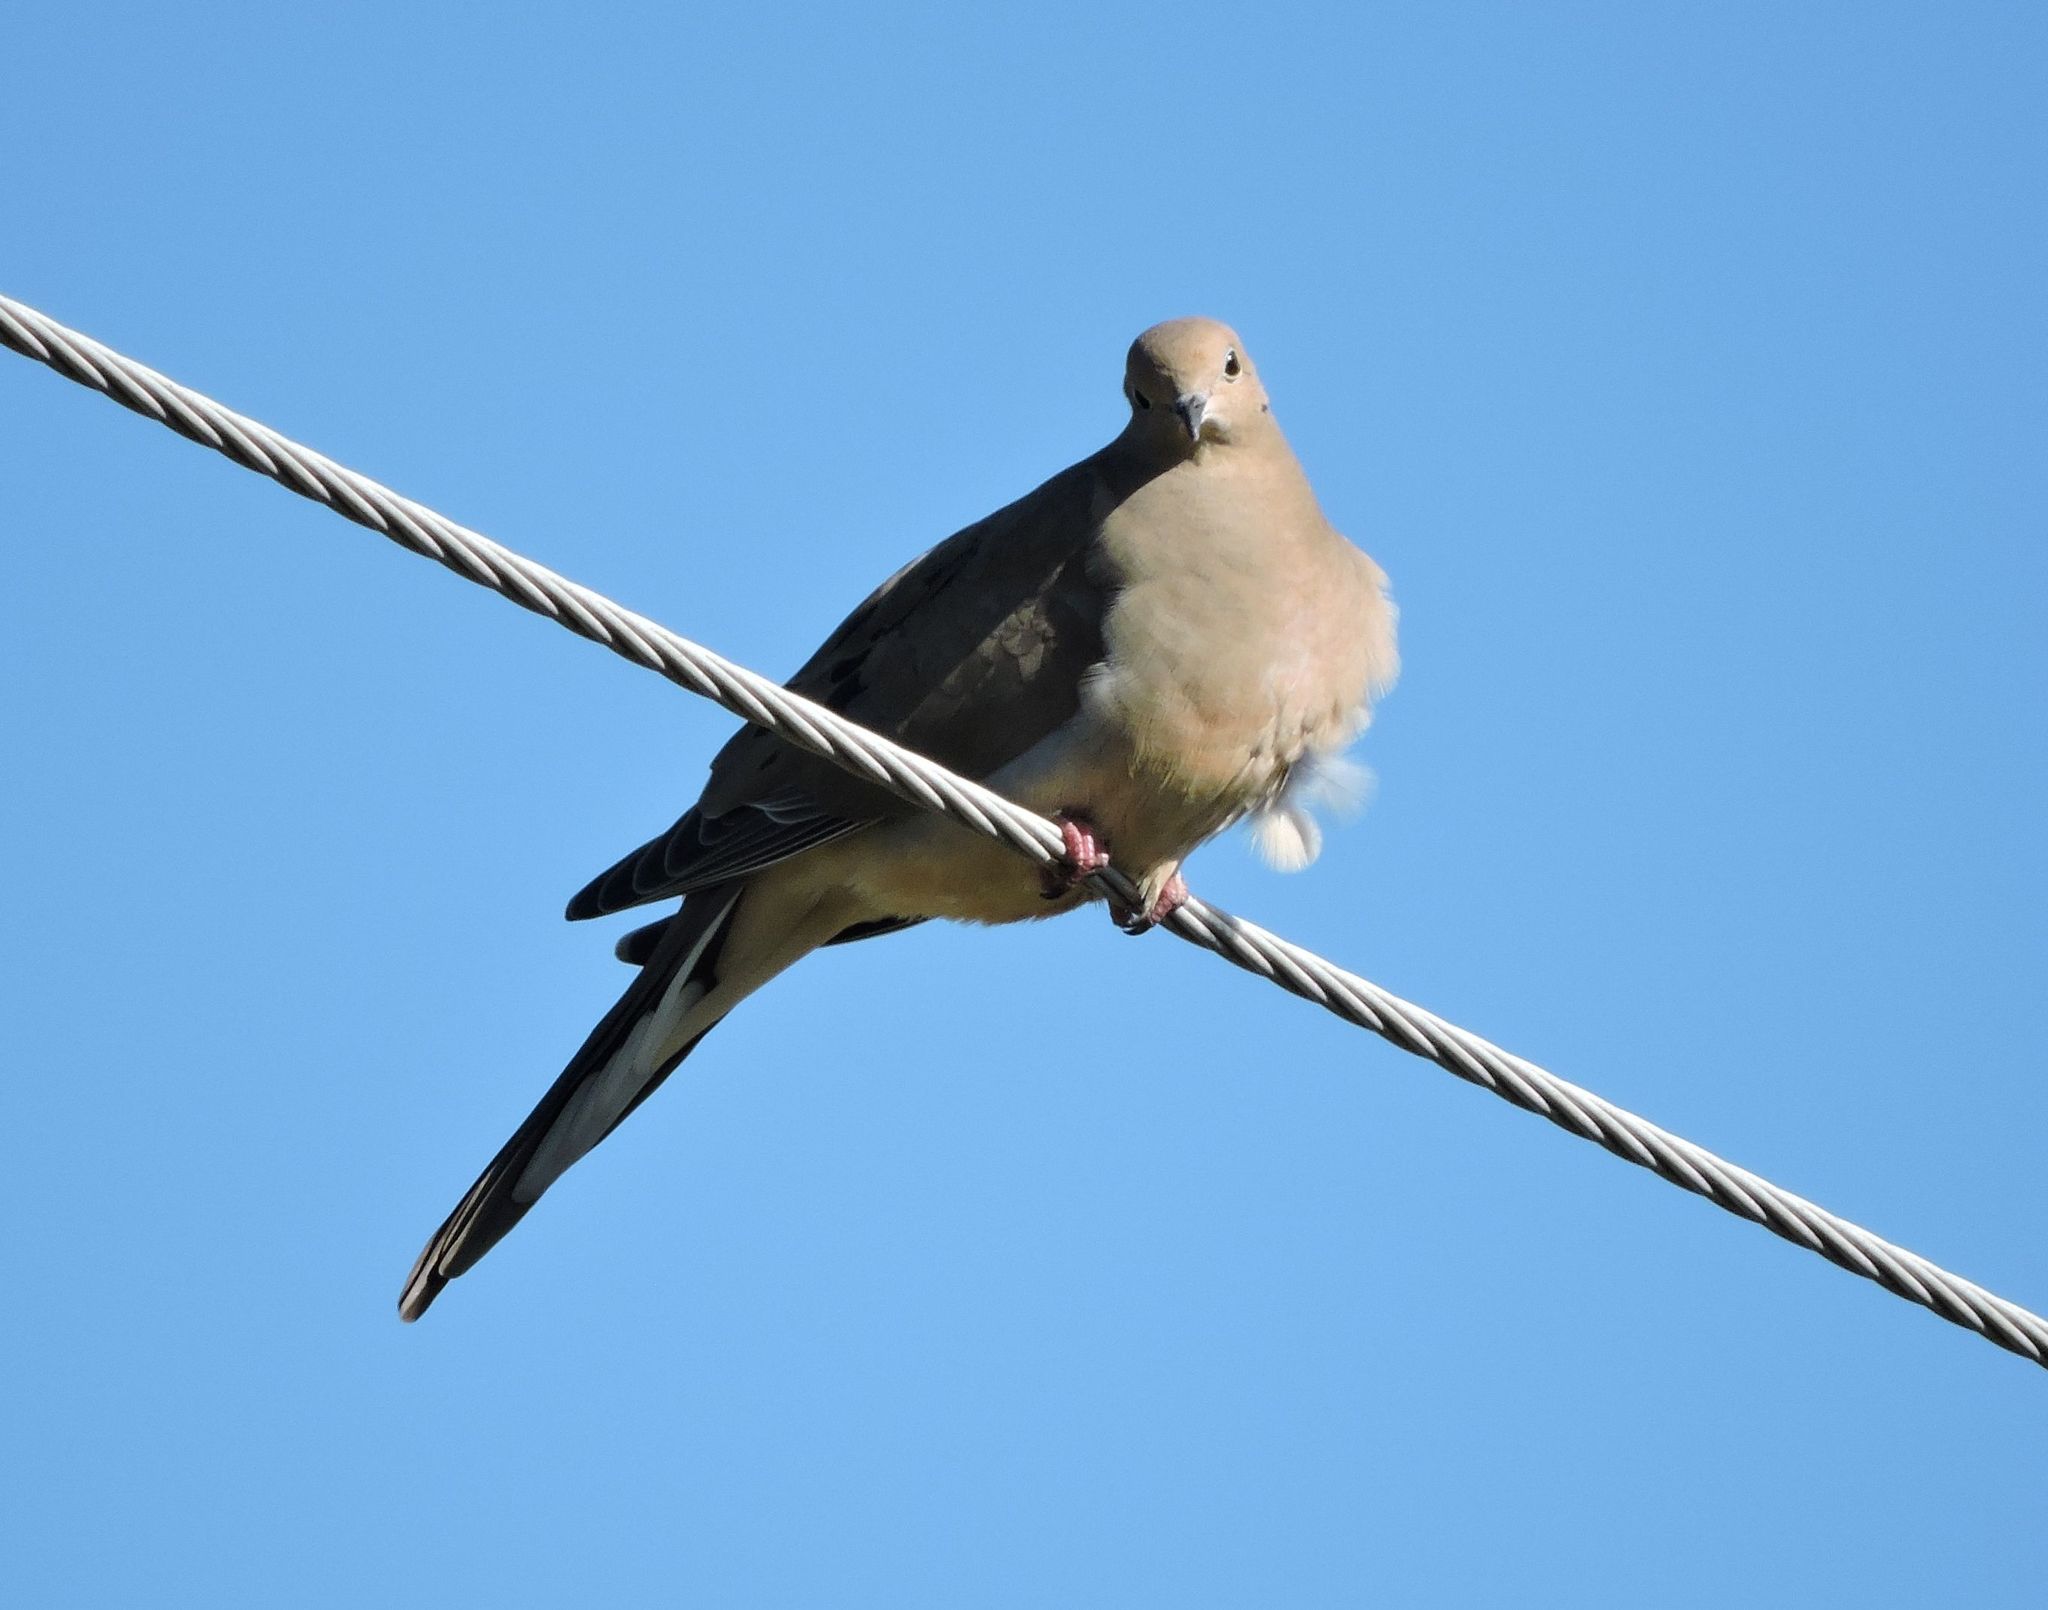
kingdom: Animalia
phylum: Chordata
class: Aves
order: Columbiformes
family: Columbidae
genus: Zenaida
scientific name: Zenaida macroura
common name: Mourning dove
